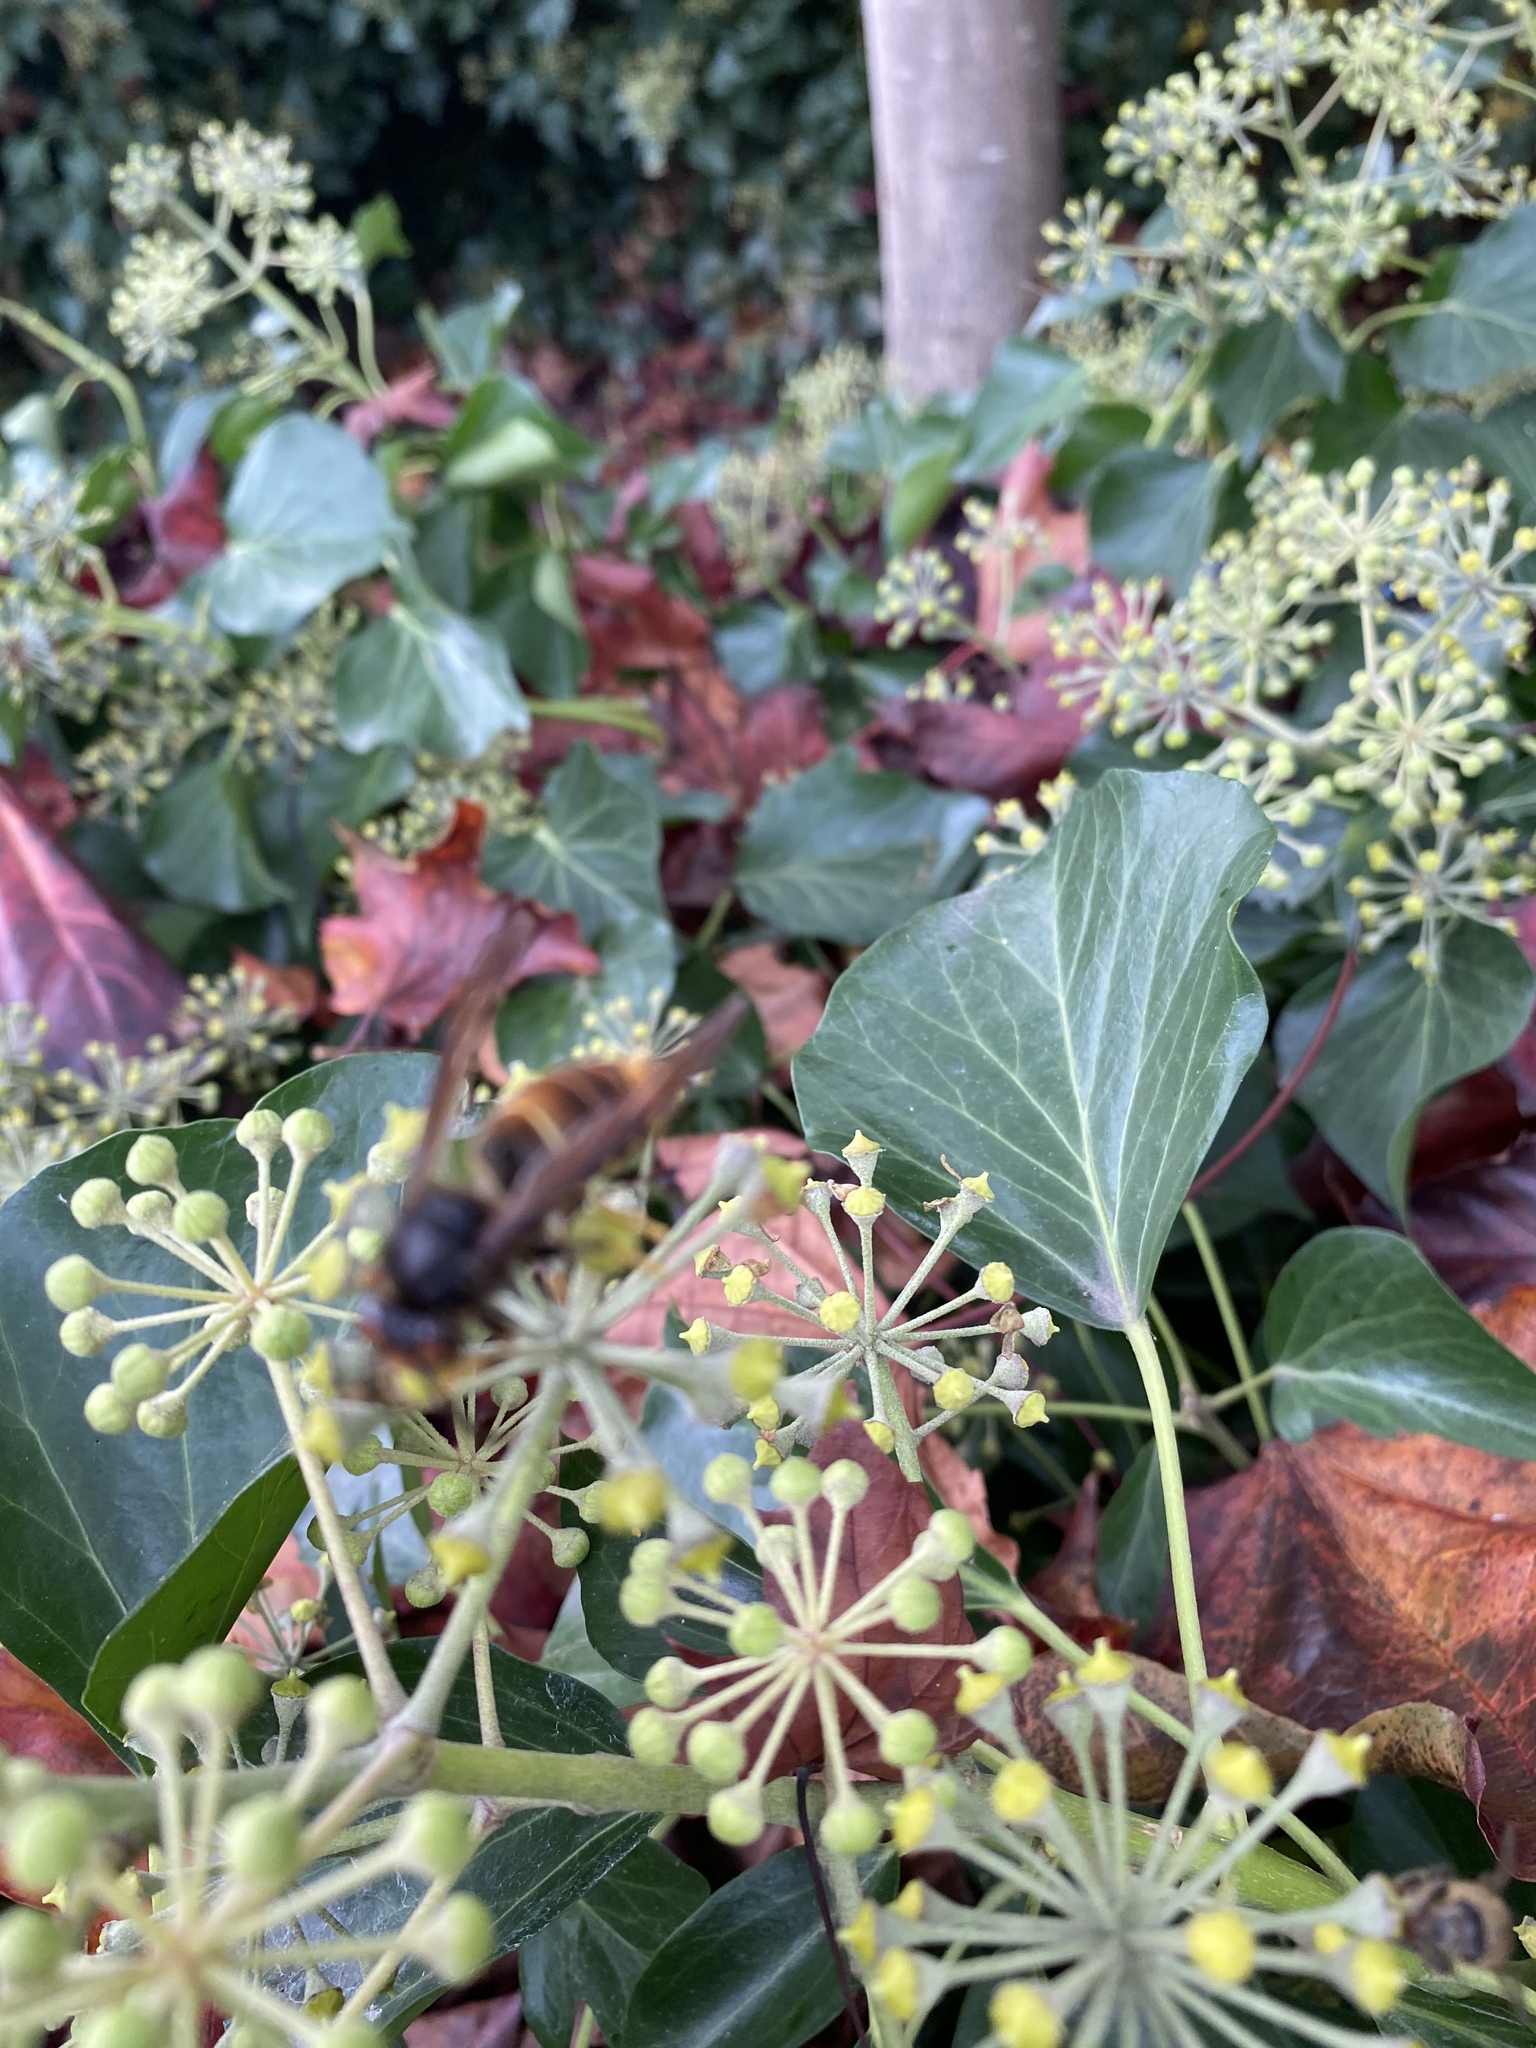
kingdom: Animalia
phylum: Arthropoda
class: Insecta
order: Hymenoptera
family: Vespidae
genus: Vespa
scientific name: Vespa velutina
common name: Asian hornet
